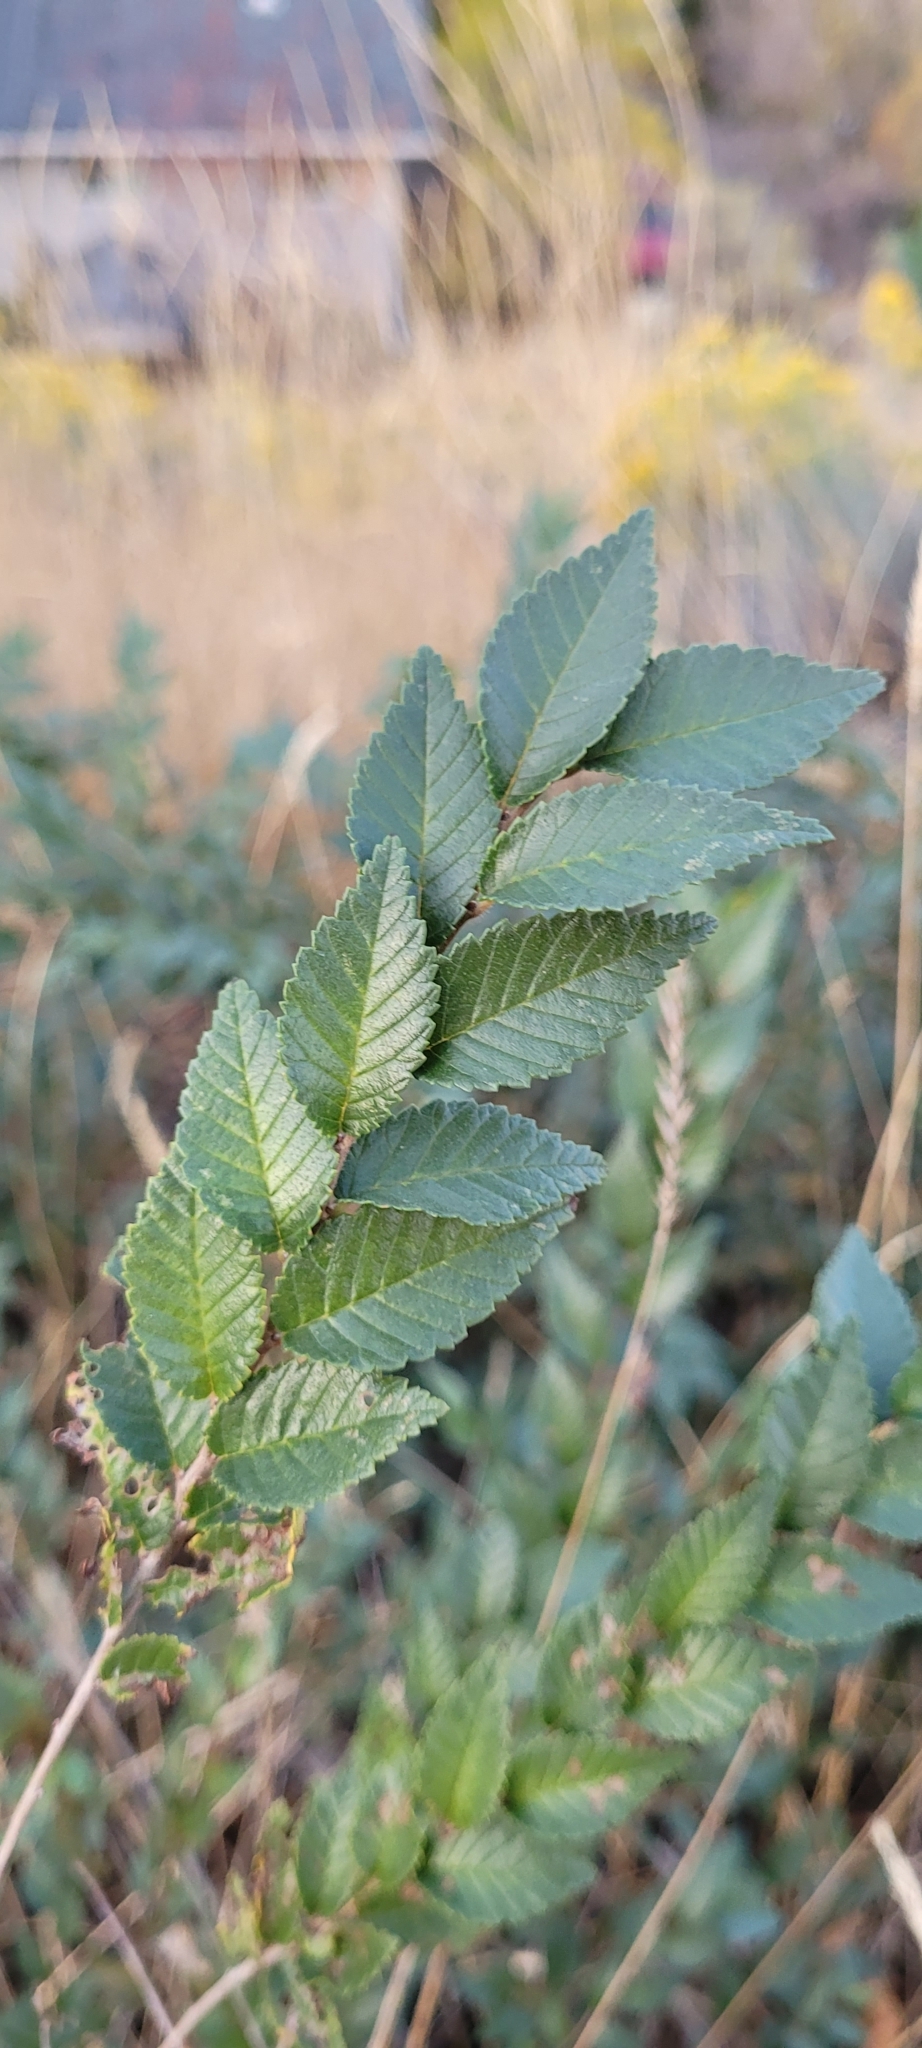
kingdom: Plantae
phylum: Tracheophyta
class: Magnoliopsida
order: Rosales
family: Ulmaceae
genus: Ulmus
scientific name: Ulmus pumila
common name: Siberian elm
